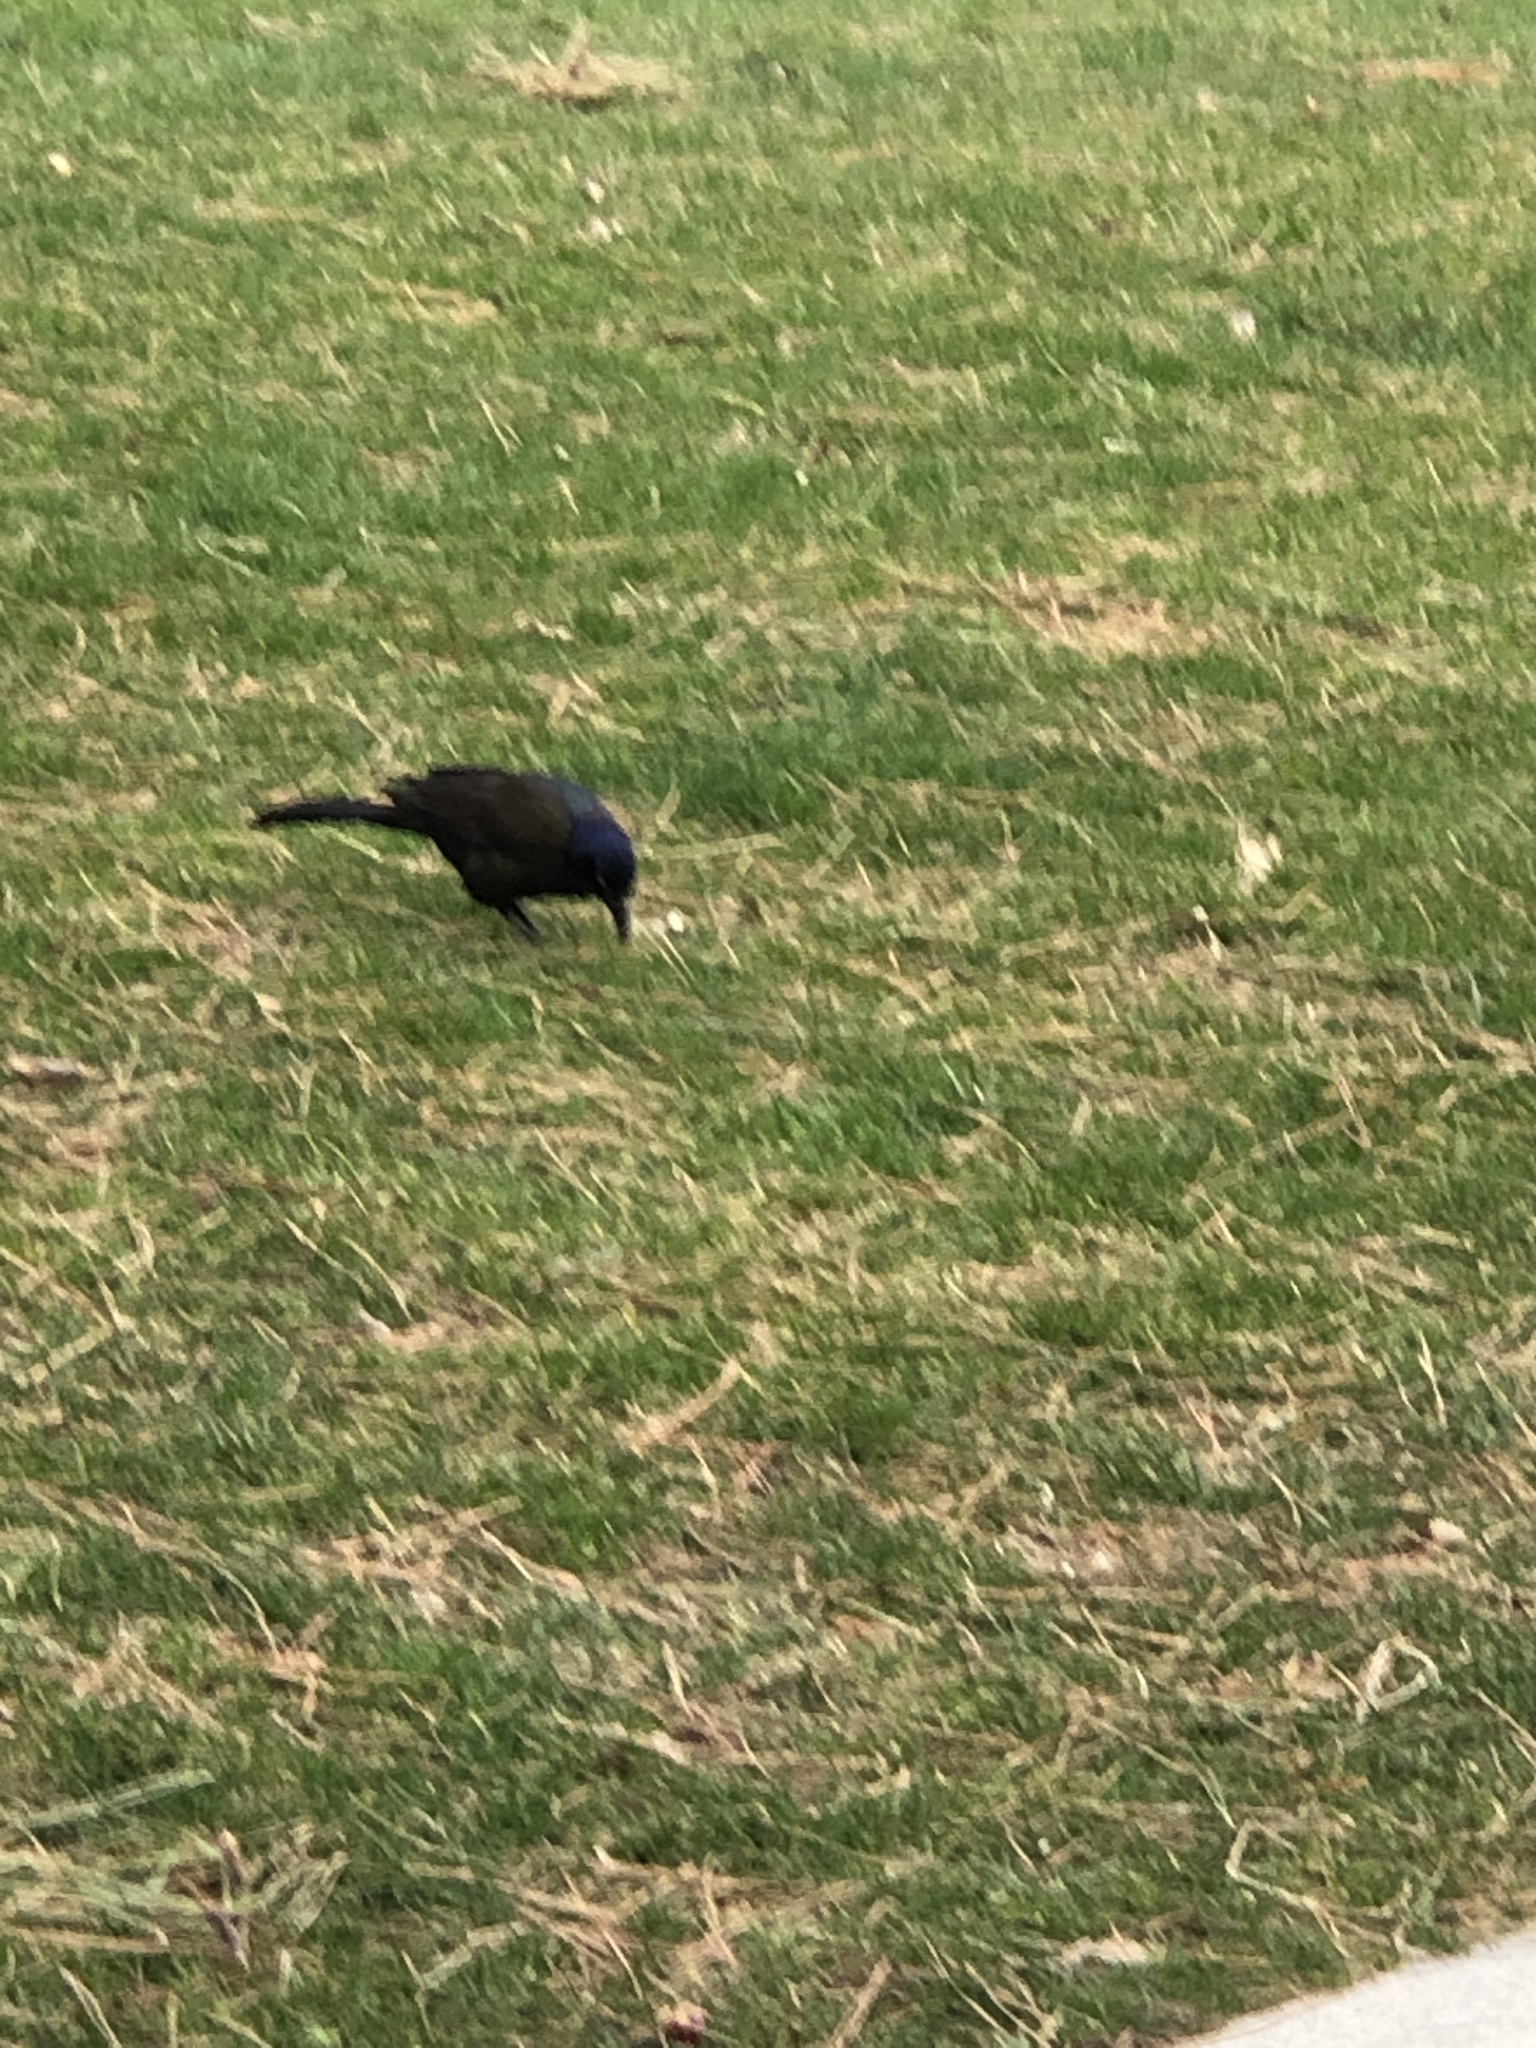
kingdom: Animalia
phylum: Chordata
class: Aves
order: Passeriformes
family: Icteridae
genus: Quiscalus
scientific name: Quiscalus quiscula
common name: Common grackle
